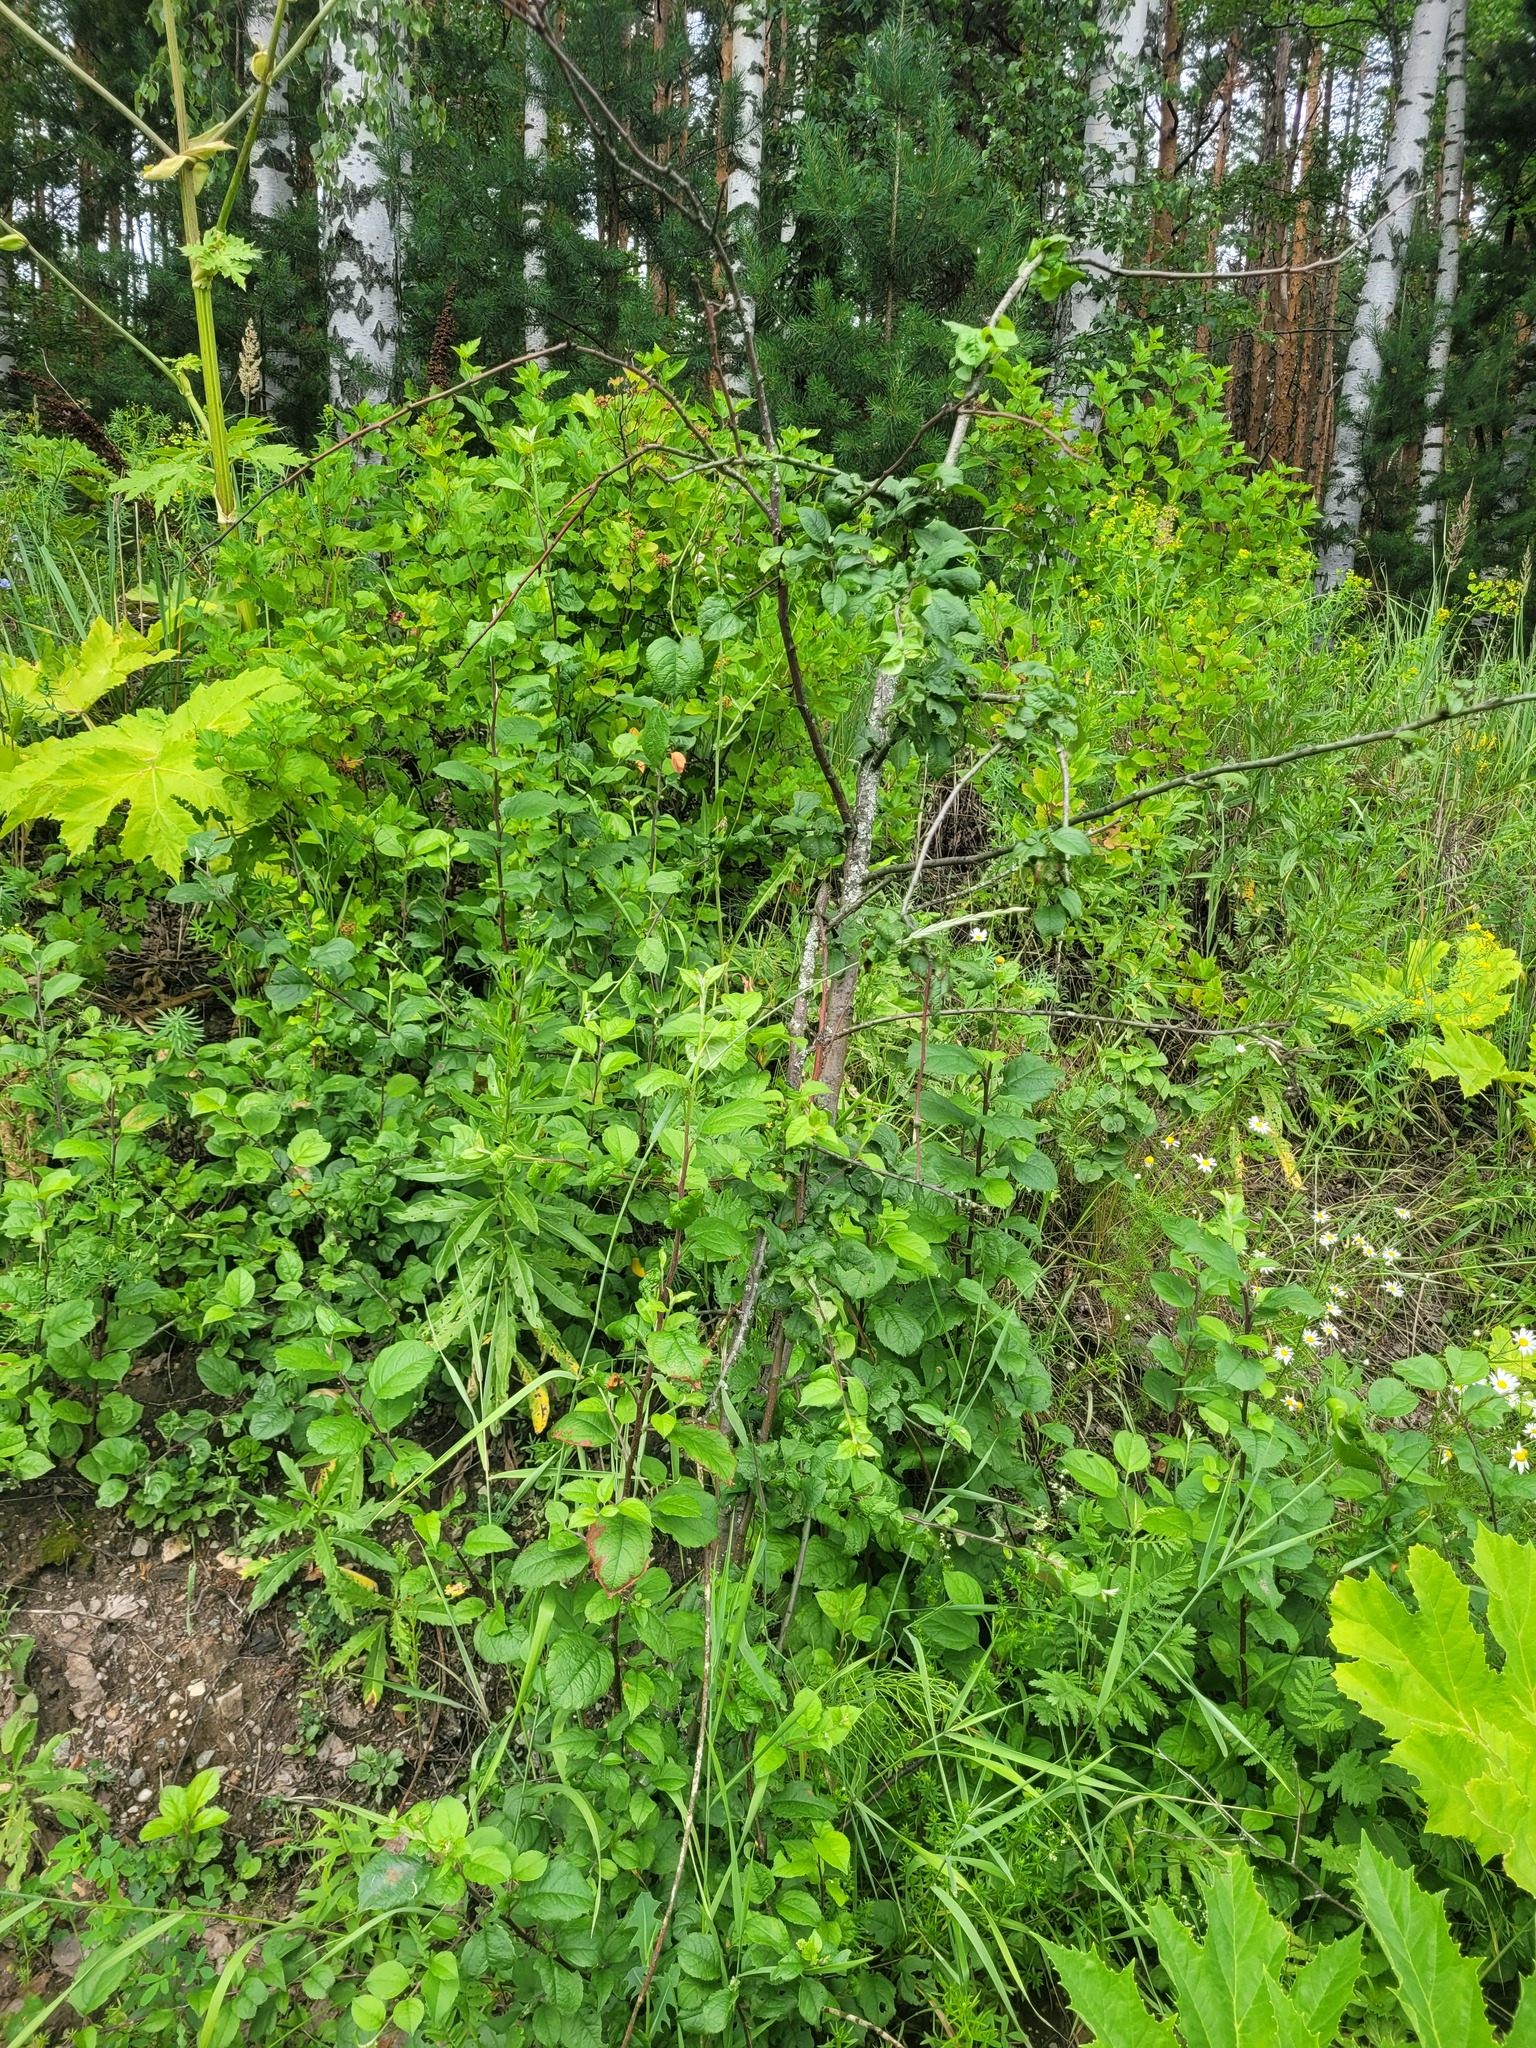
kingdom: Plantae
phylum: Tracheophyta
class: Magnoliopsida
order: Rosales
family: Rosaceae
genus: Malus
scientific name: Malus domestica
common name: Apple
